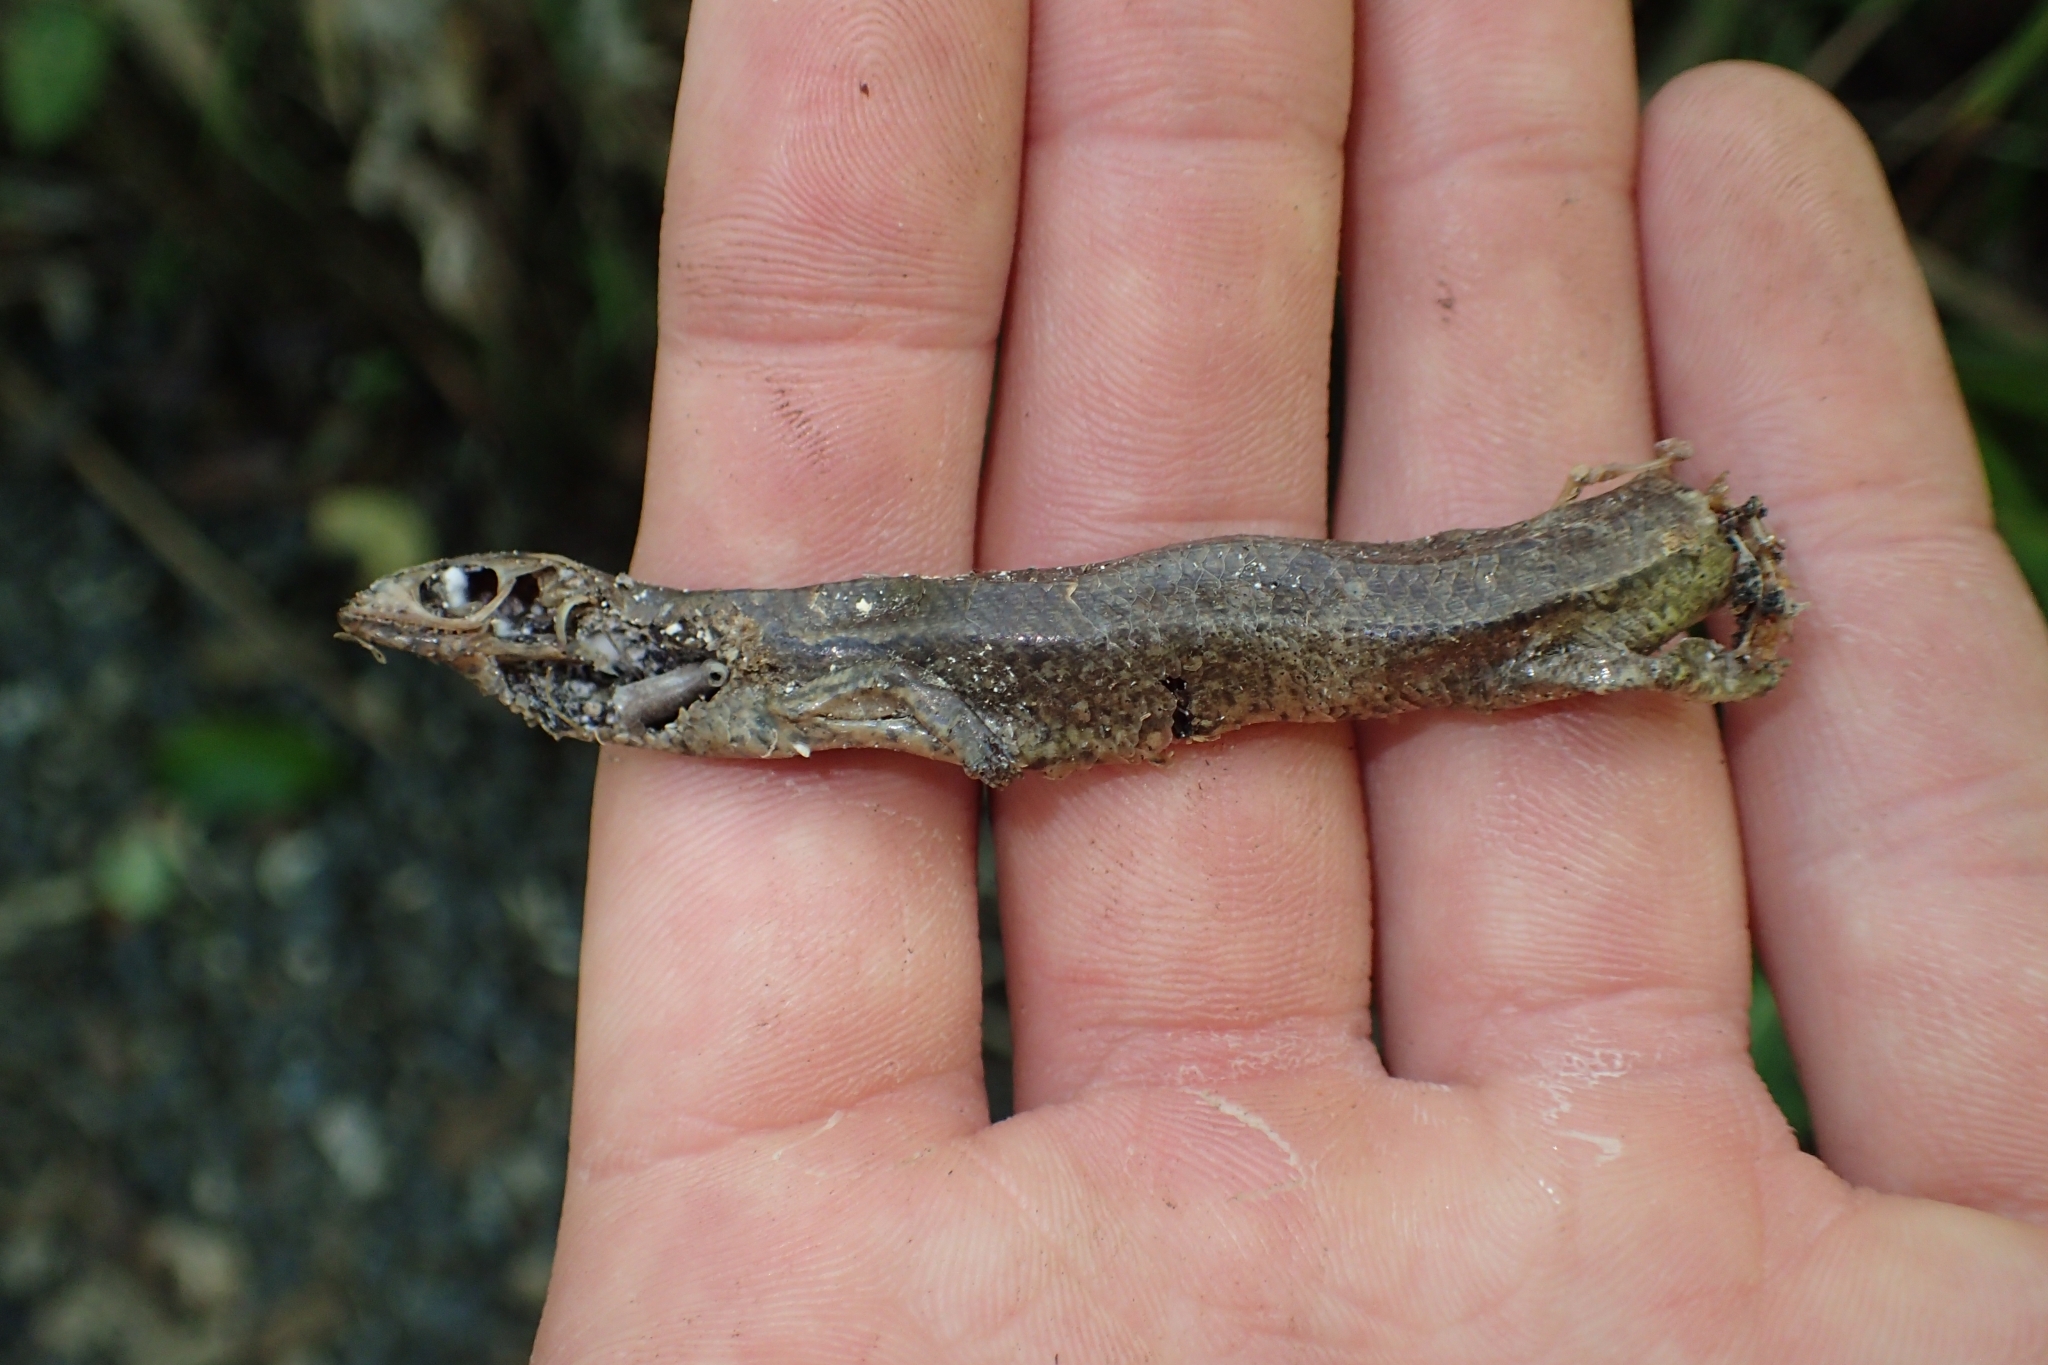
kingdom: Animalia
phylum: Chordata
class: Squamata
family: Scincidae
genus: Oligosoma
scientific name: Oligosoma ornatum
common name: Gray's ornate skink
